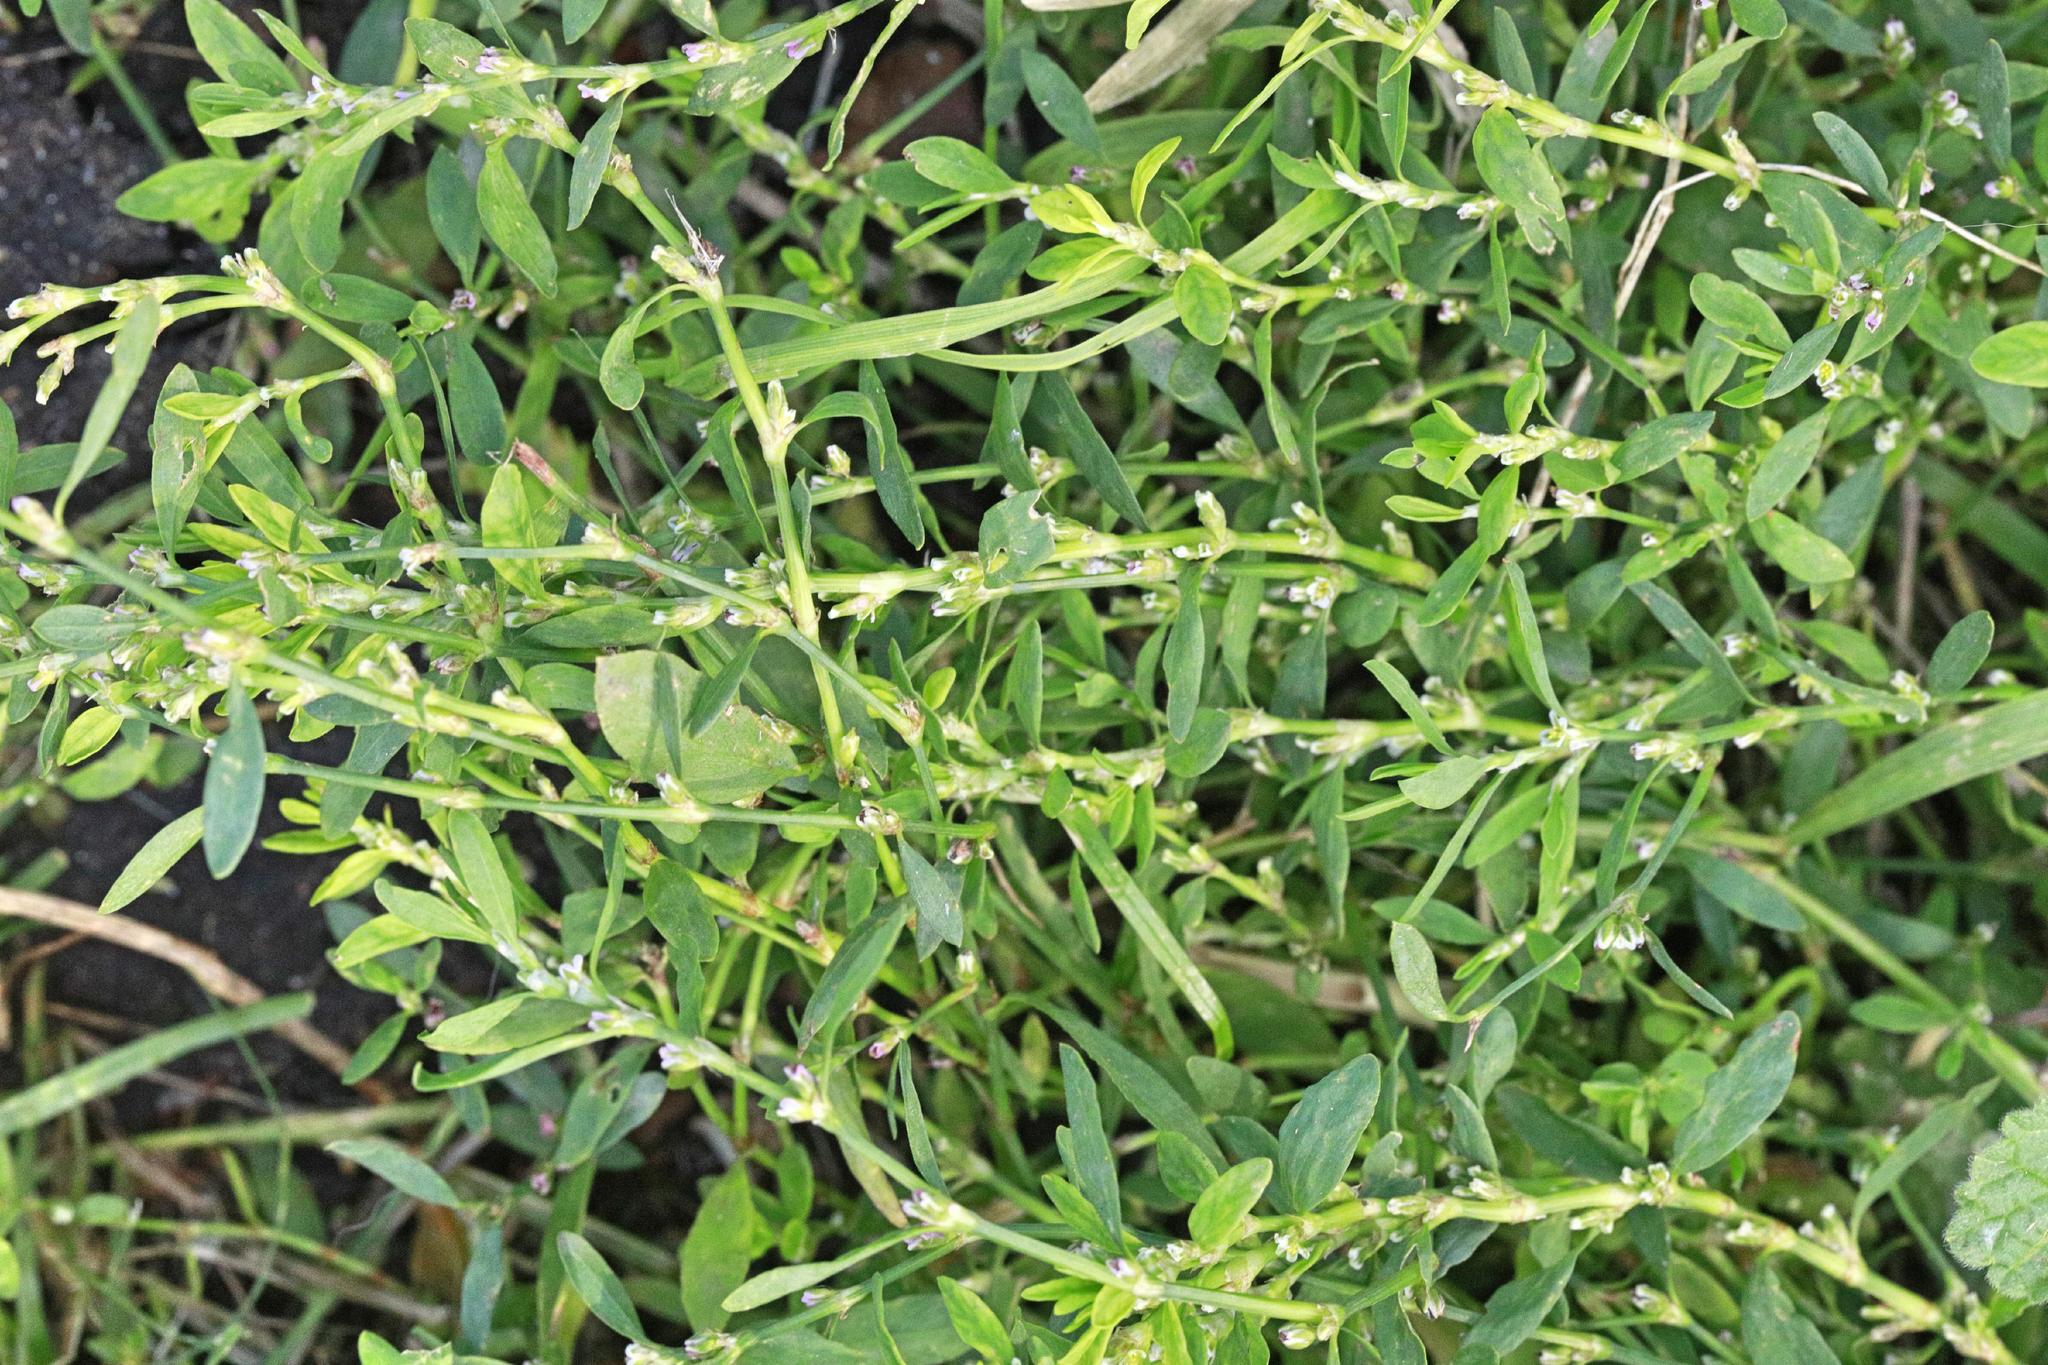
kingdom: Plantae
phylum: Tracheophyta
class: Magnoliopsida
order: Caryophyllales
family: Polygonaceae
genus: Polygonum
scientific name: Polygonum aviculare
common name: Prostrate knotweed
